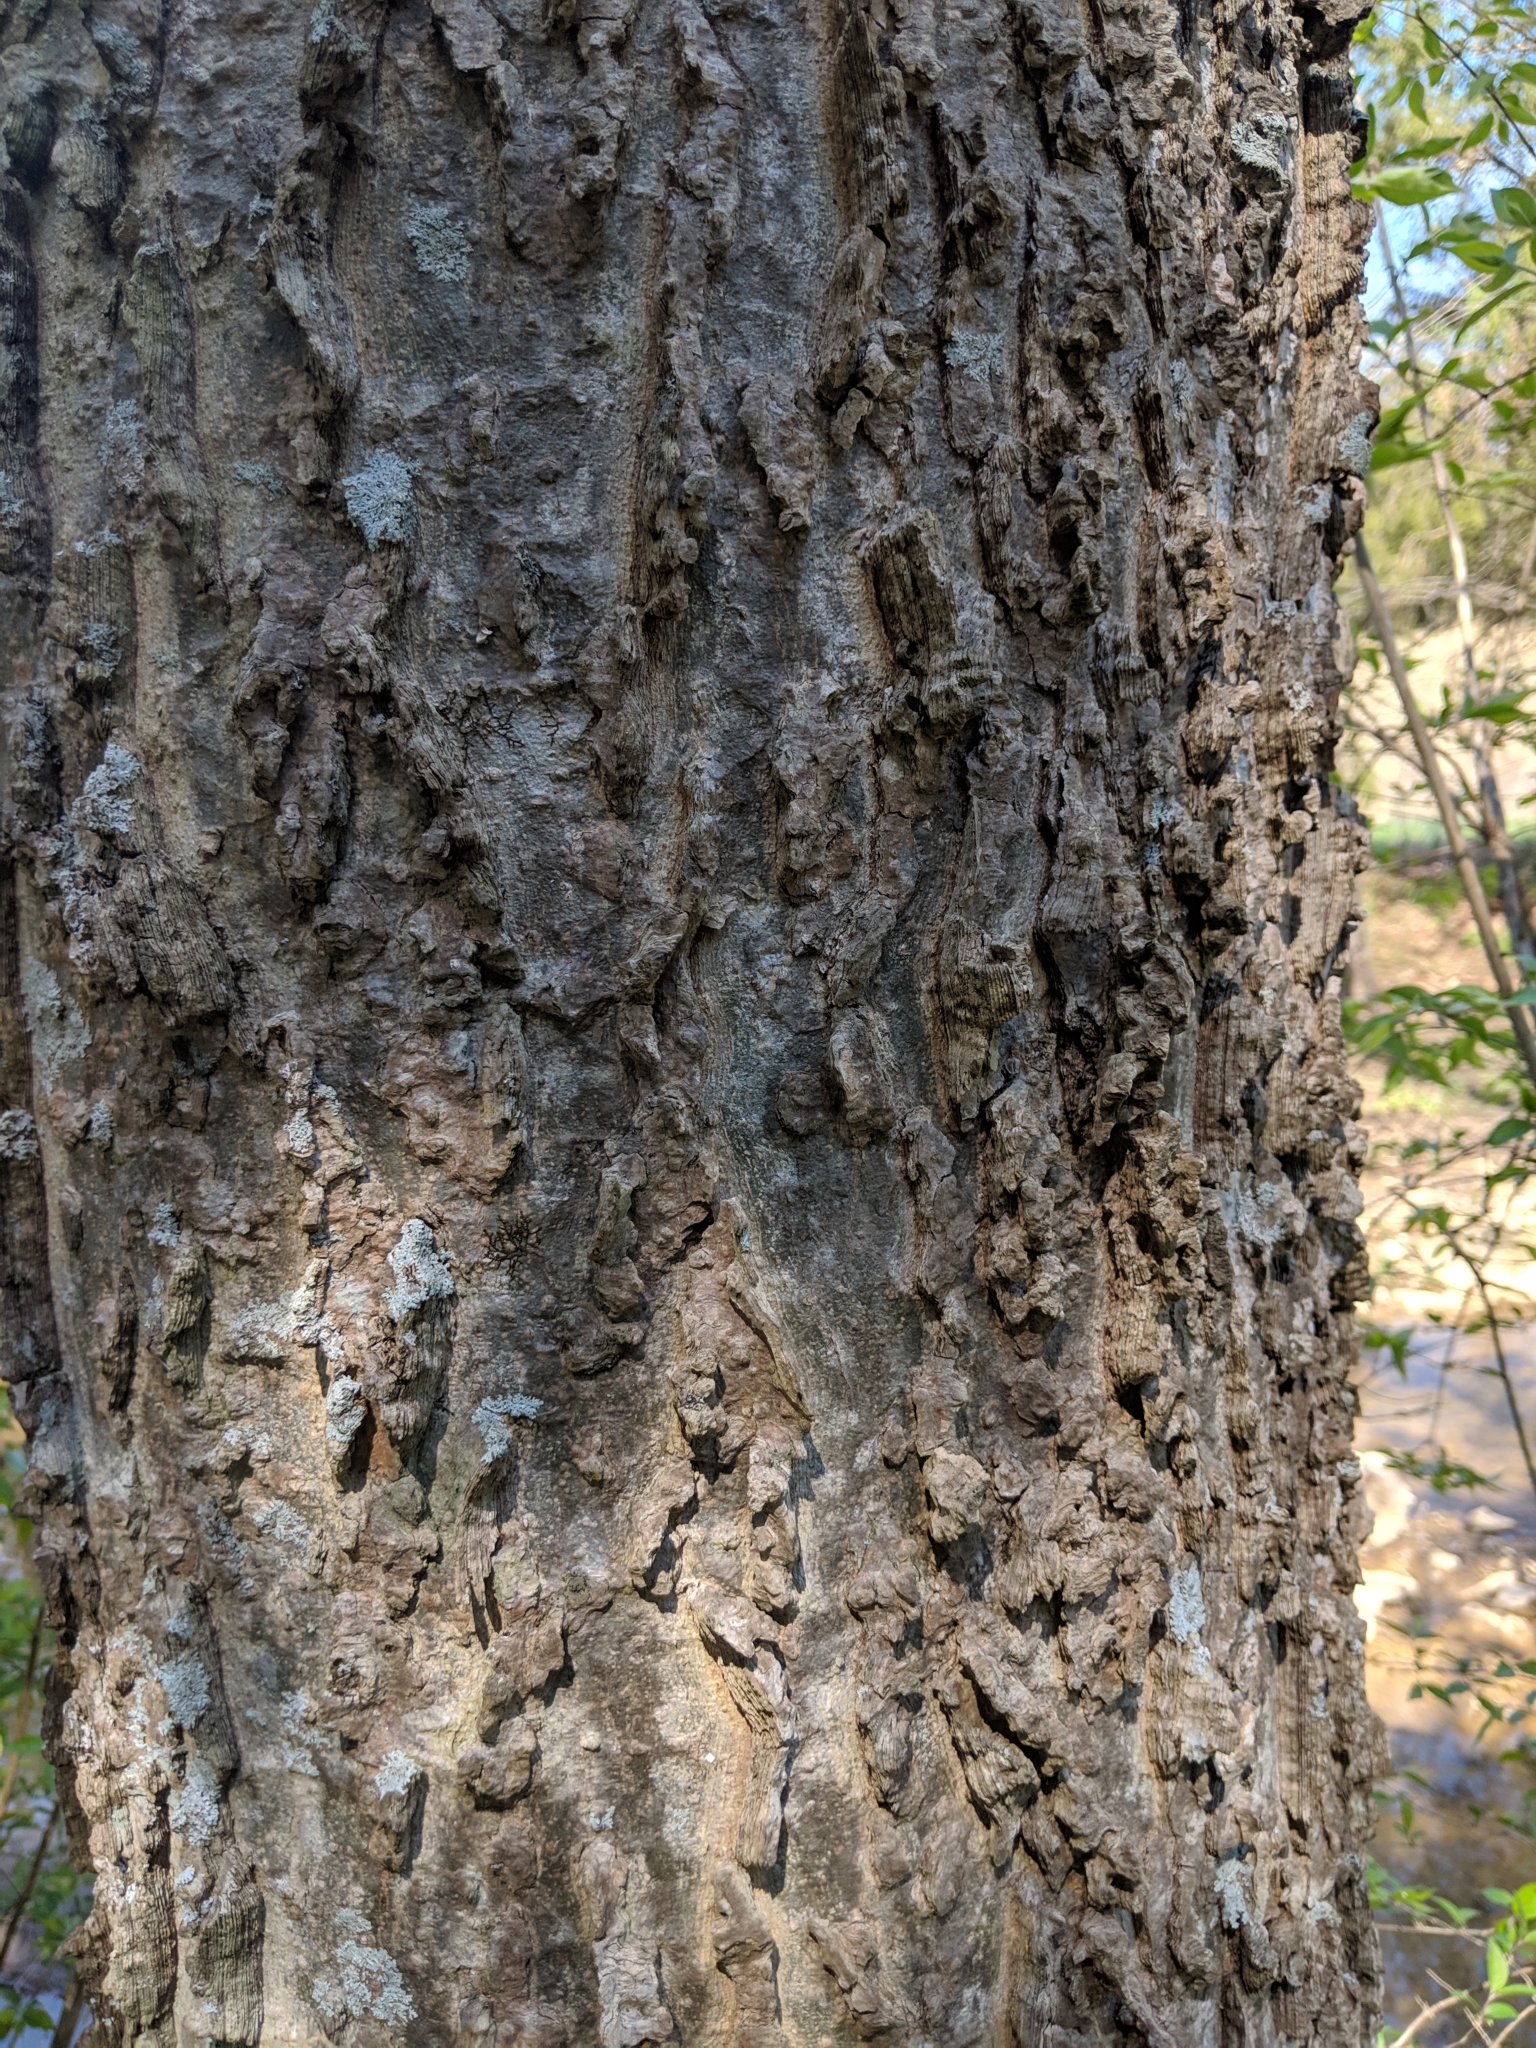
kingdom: Plantae
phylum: Tracheophyta
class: Magnoliopsida
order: Rosales
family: Cannabaceae
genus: Celtis
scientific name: Celtis occidentalis
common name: Common hackberry
